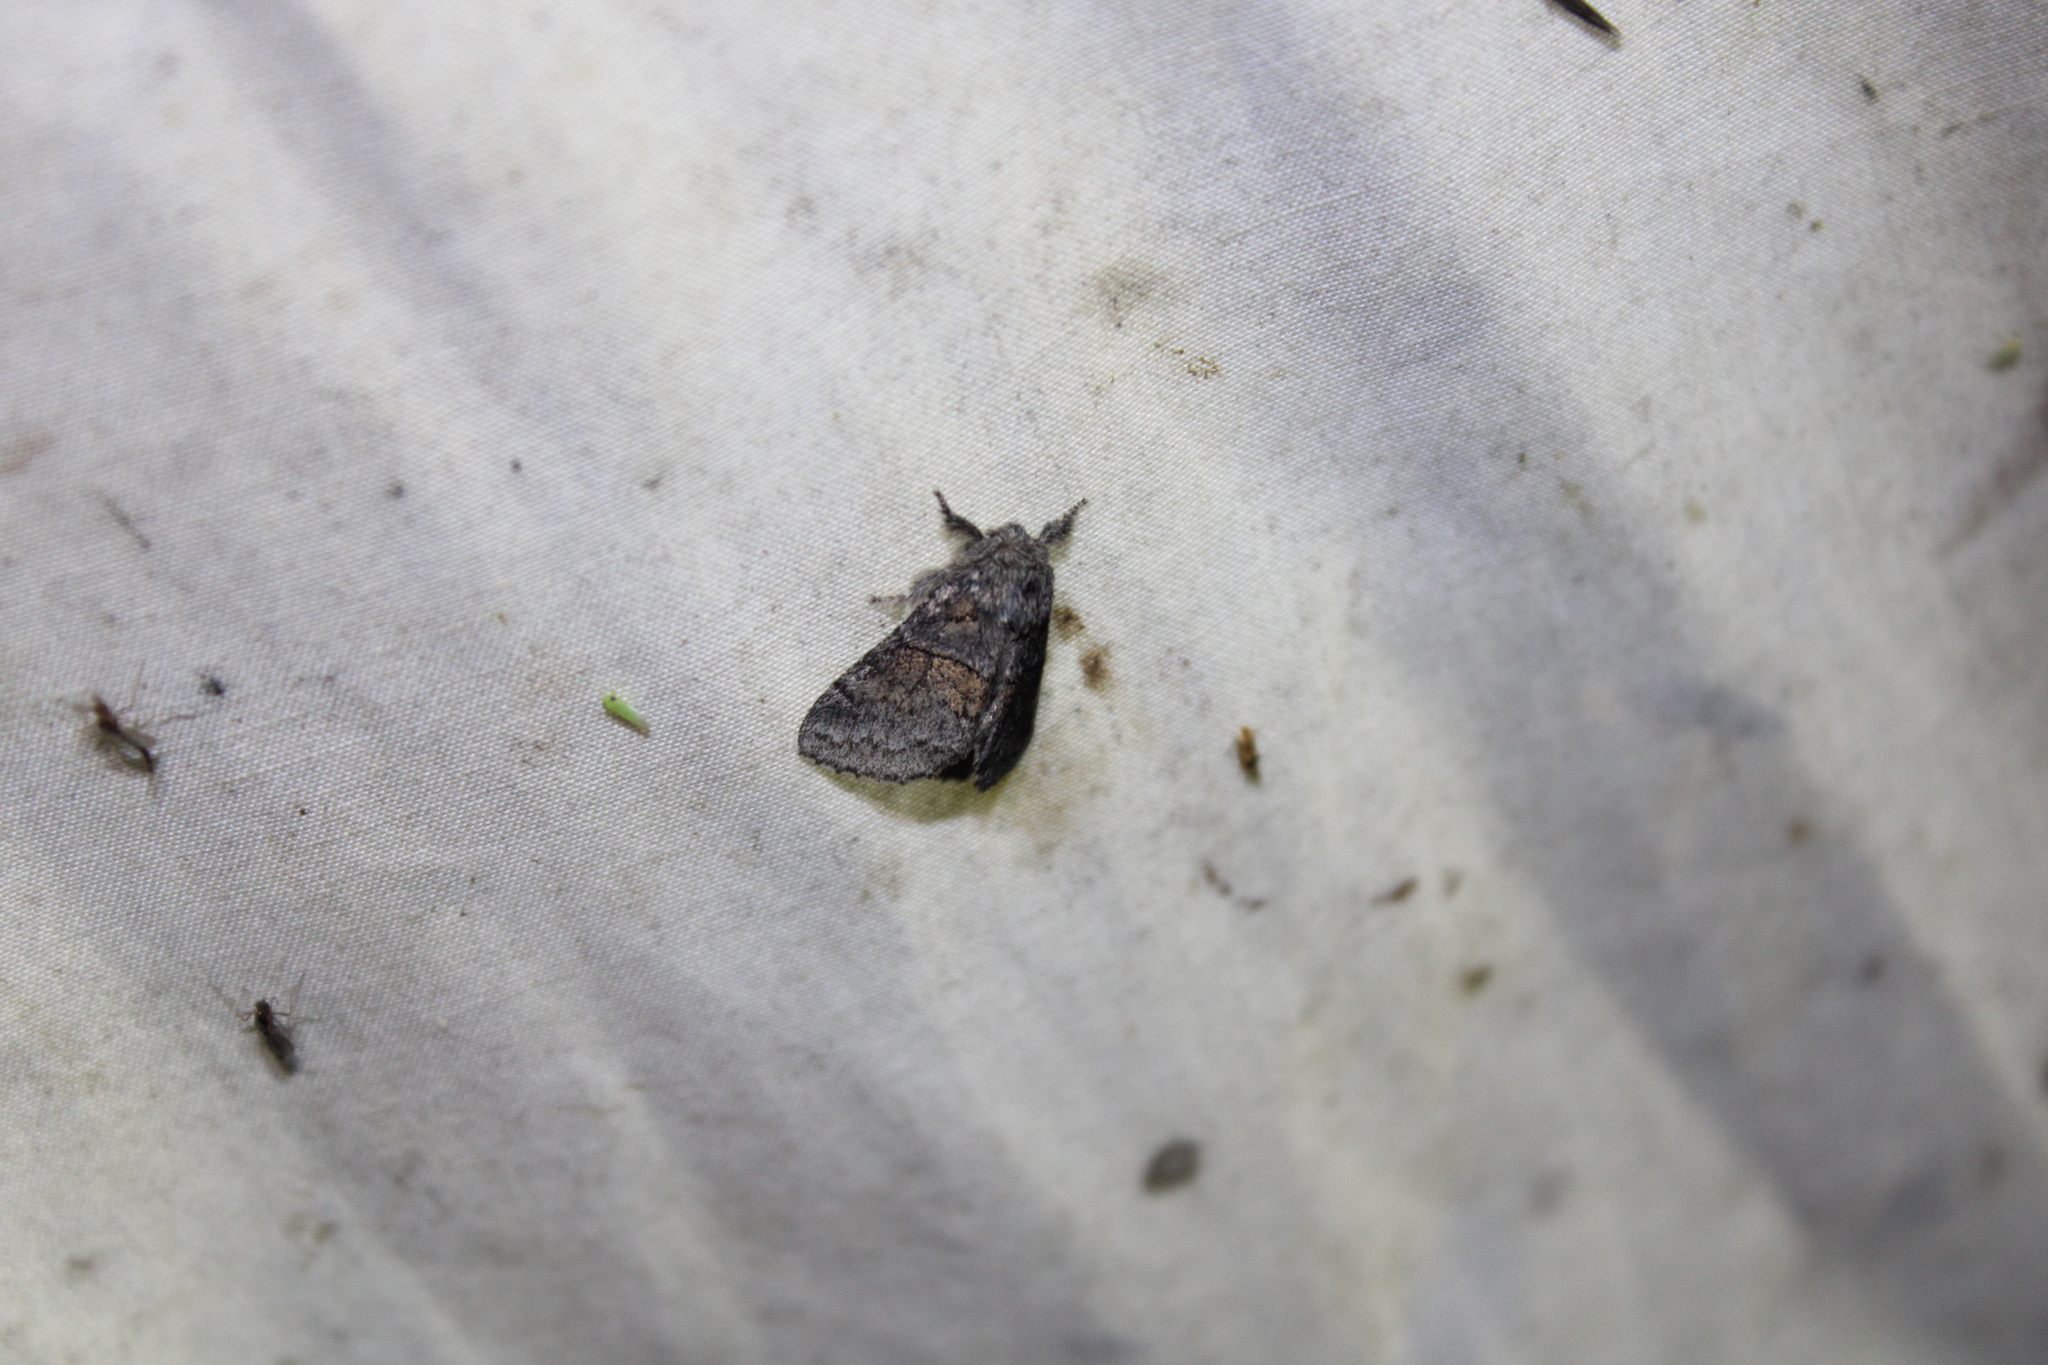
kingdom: Animalia
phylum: Arthropoda
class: Insecta
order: Lepidoptera
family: Notodontidae
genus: Gluphisia
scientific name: Gluphisia septentrionis
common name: Common gluphisia
